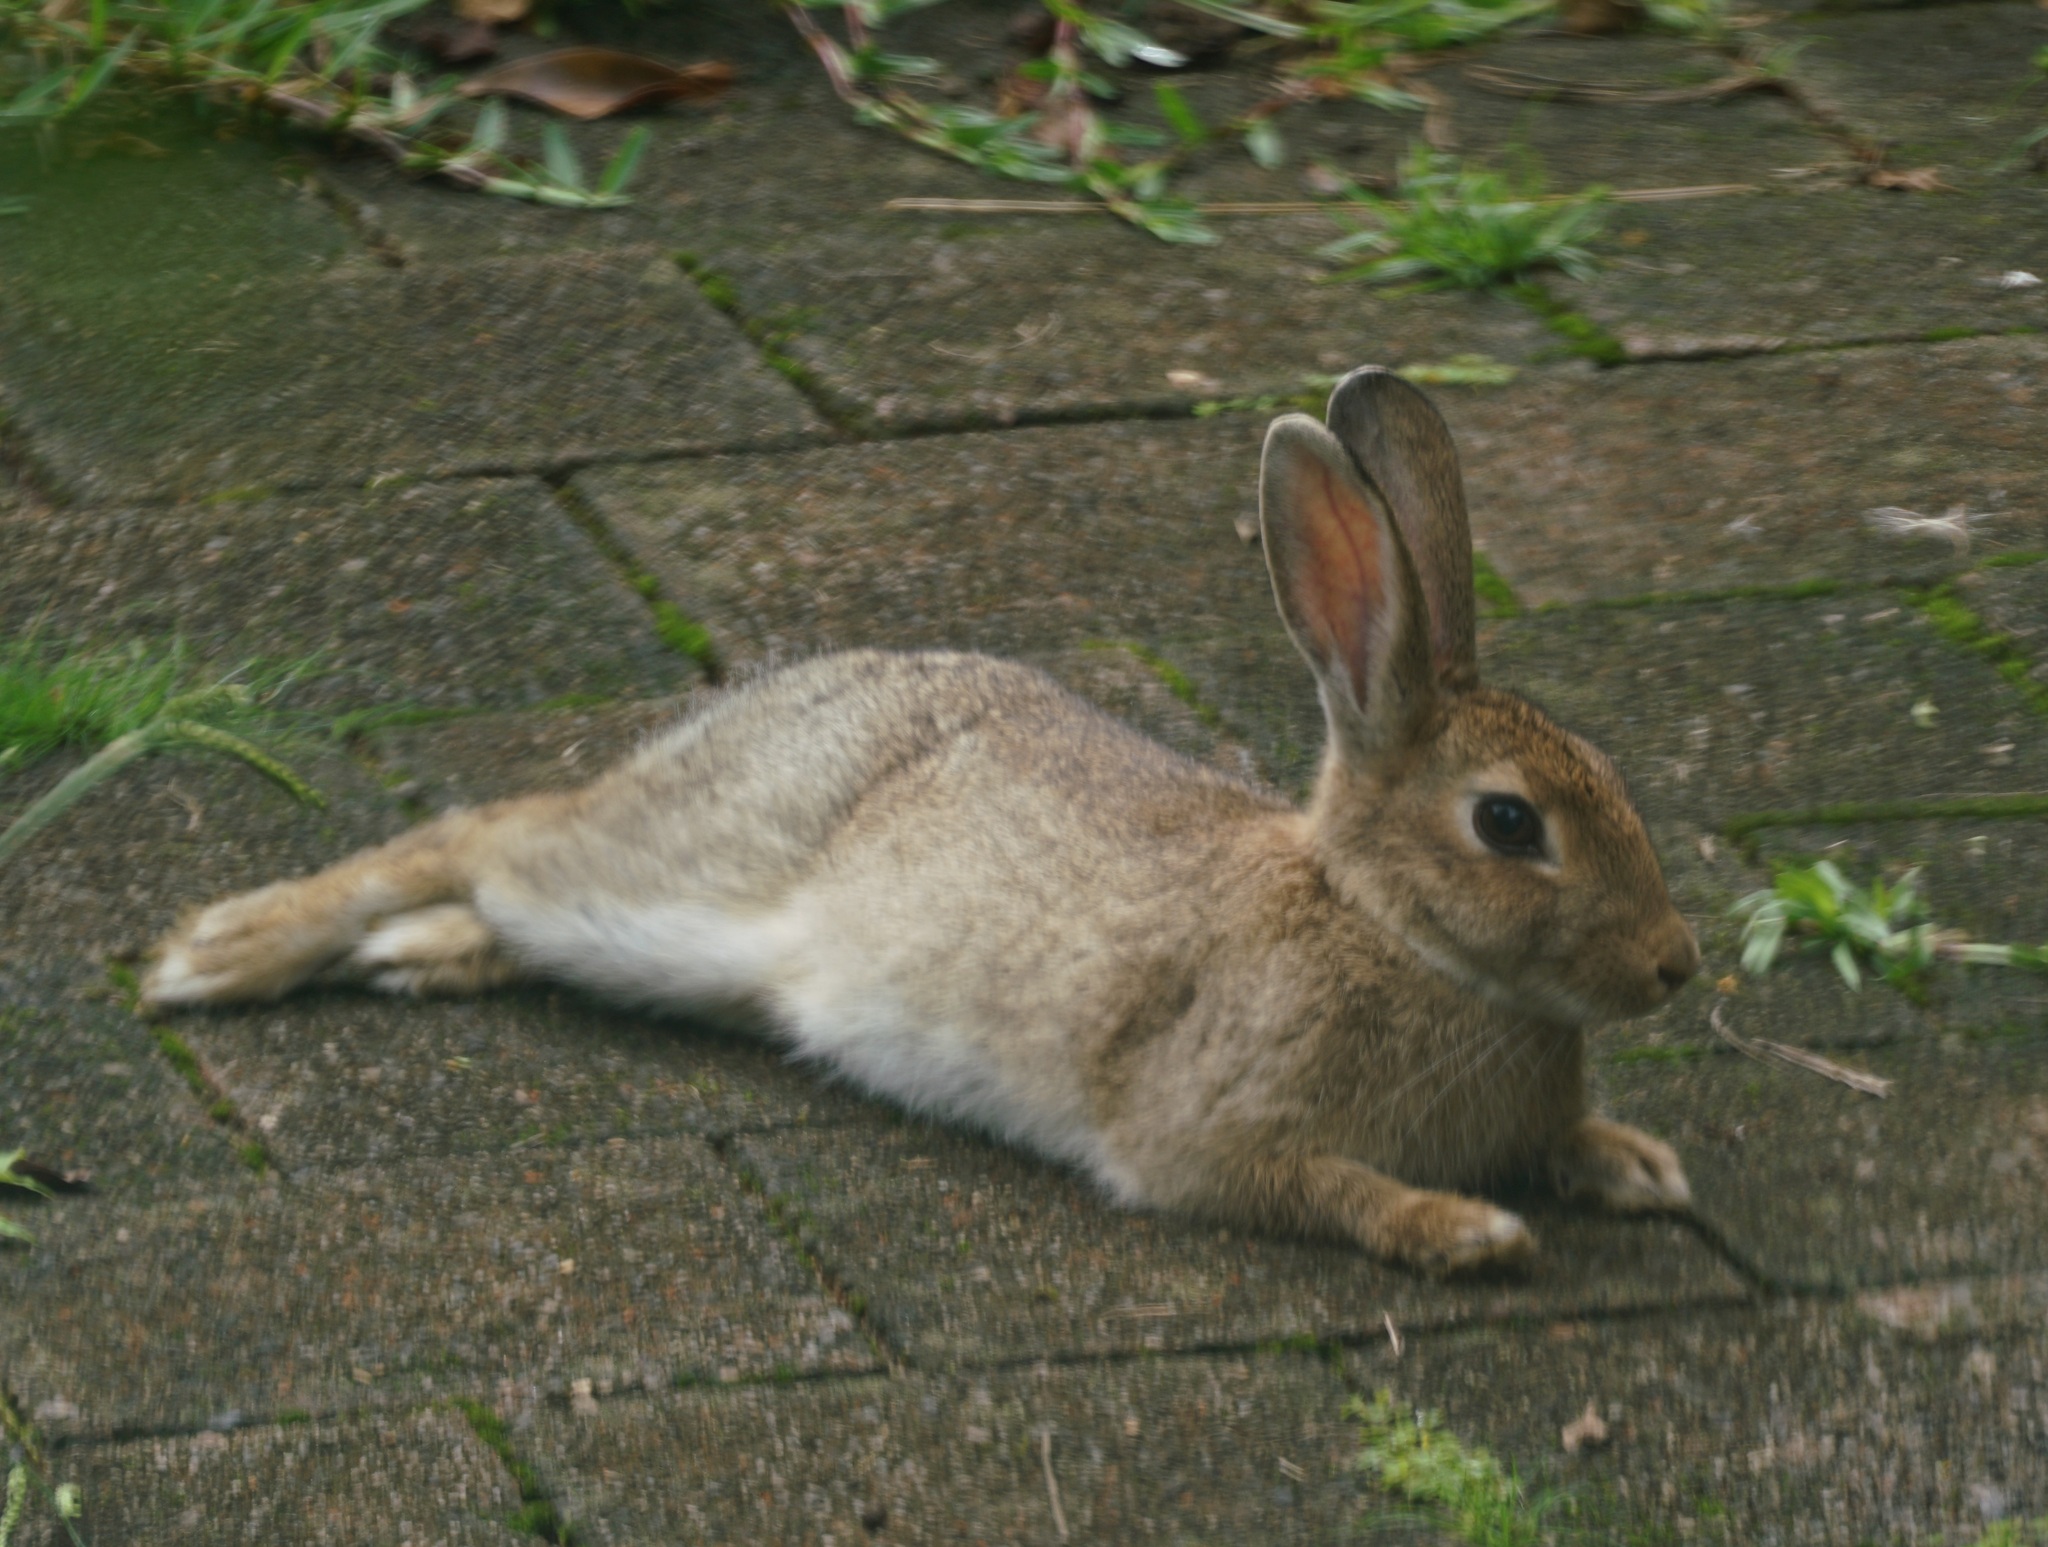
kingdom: Animalia
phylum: Chordata
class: Mammalia
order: Lagomorpha
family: Leporidae
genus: Oryctolagus
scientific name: Oryctolagus cuniculus
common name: European rabbit
